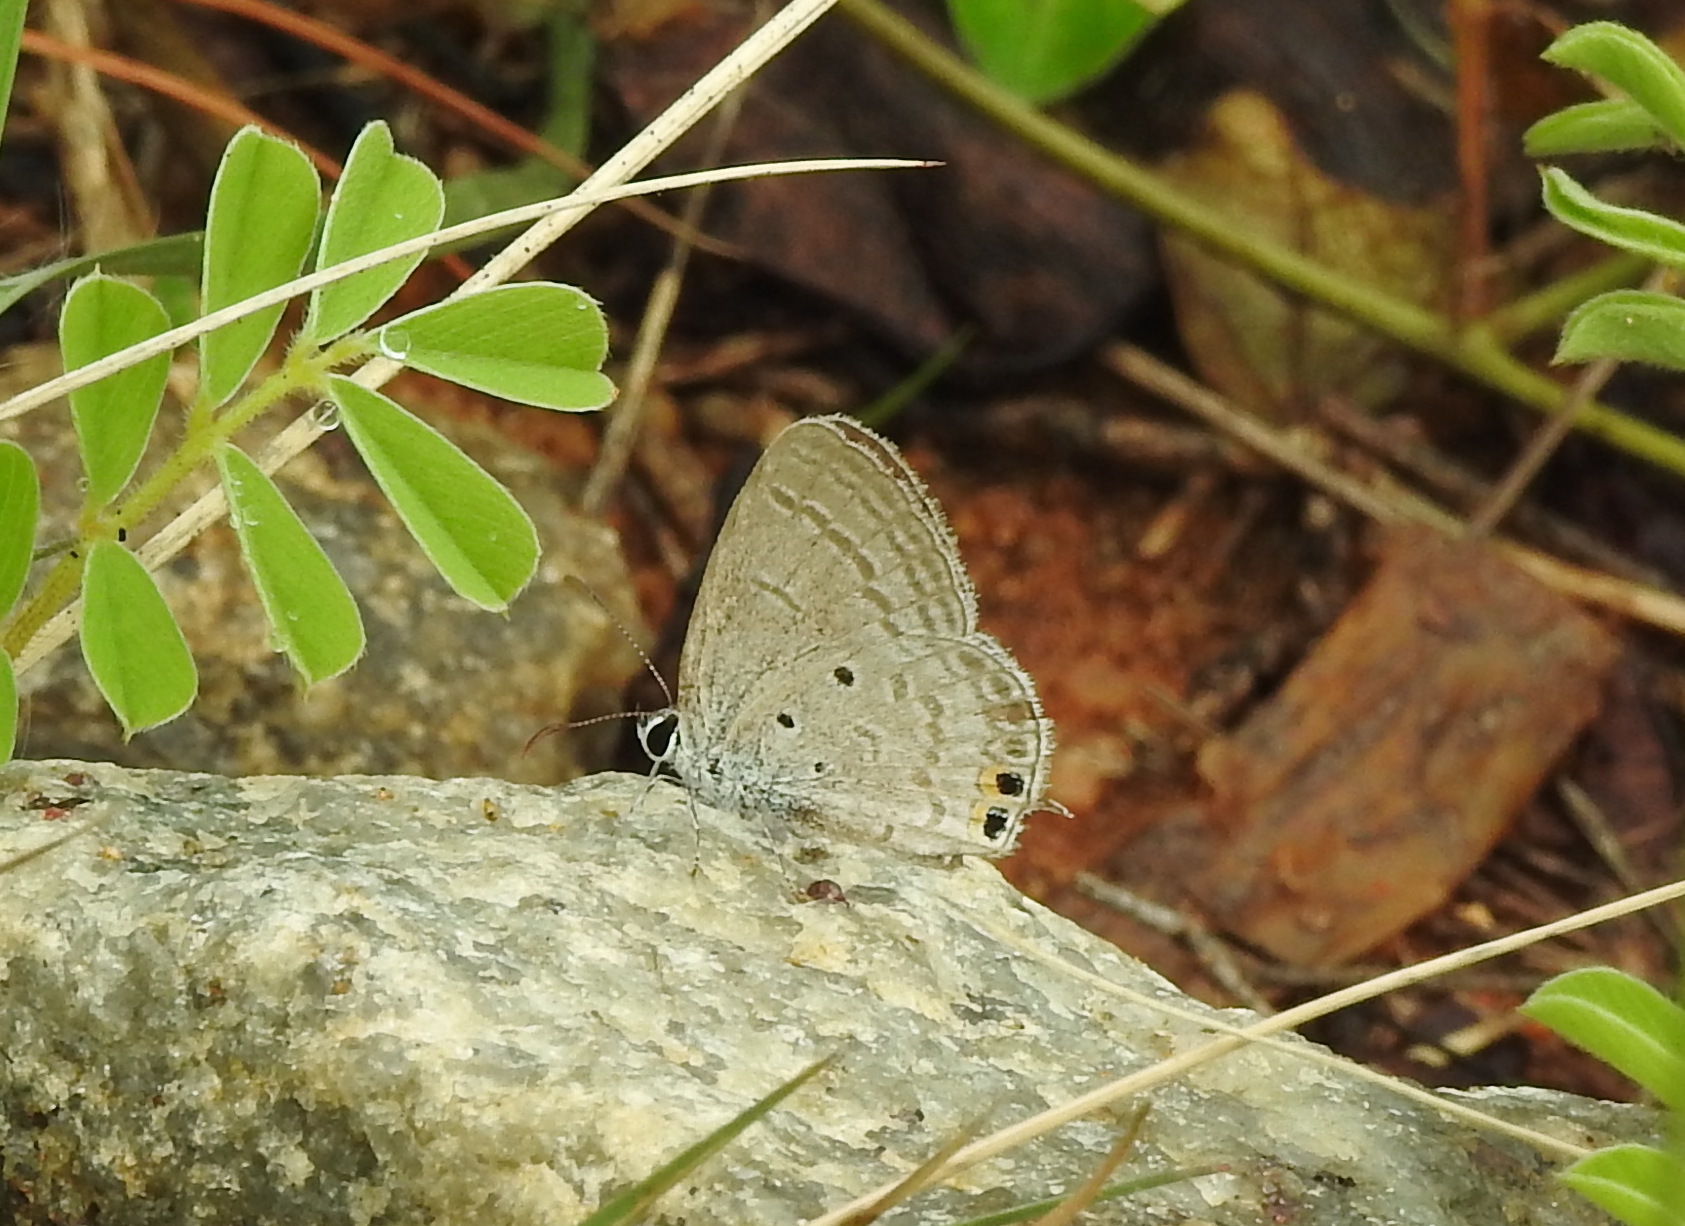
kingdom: Animalia
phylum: Arthropoda
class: Insecta
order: Lepidoptera
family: Lycaenidae
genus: Euchrysops
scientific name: Euchrysops cnejus
